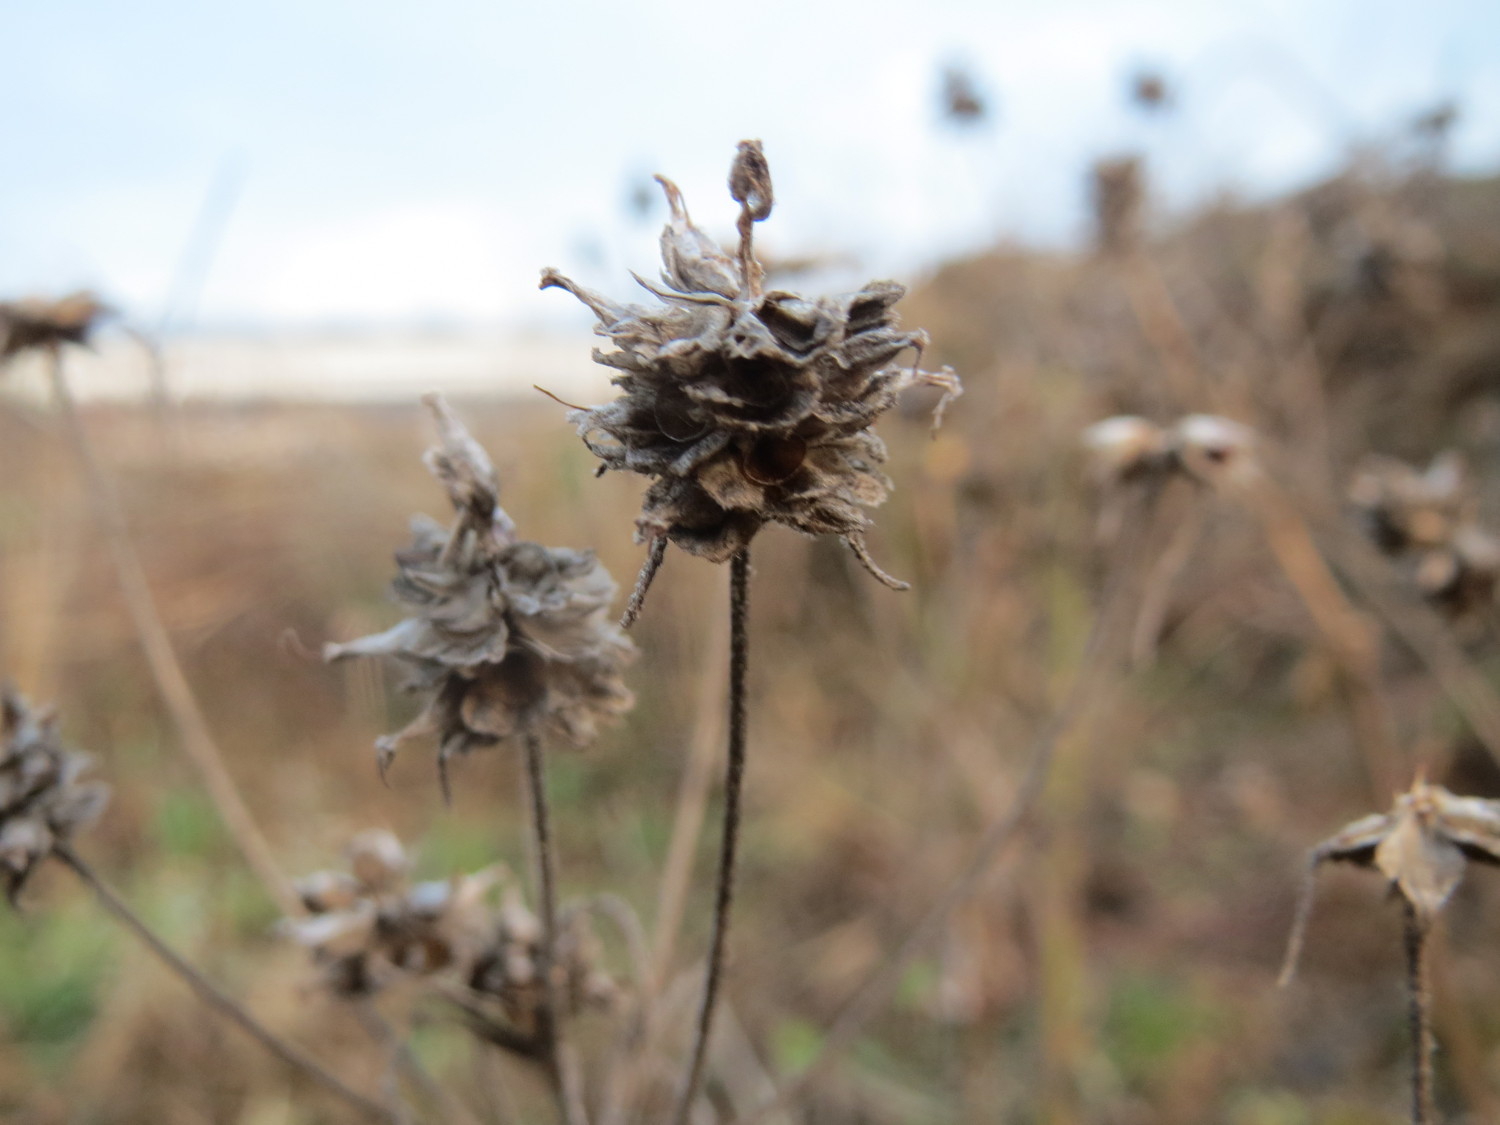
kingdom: Plantae
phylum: Tracheophyta
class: Magnoliopsida
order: Lamiales
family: Plantaginaceae
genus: Plantago
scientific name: Plantago arenaria
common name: Branched plantain
